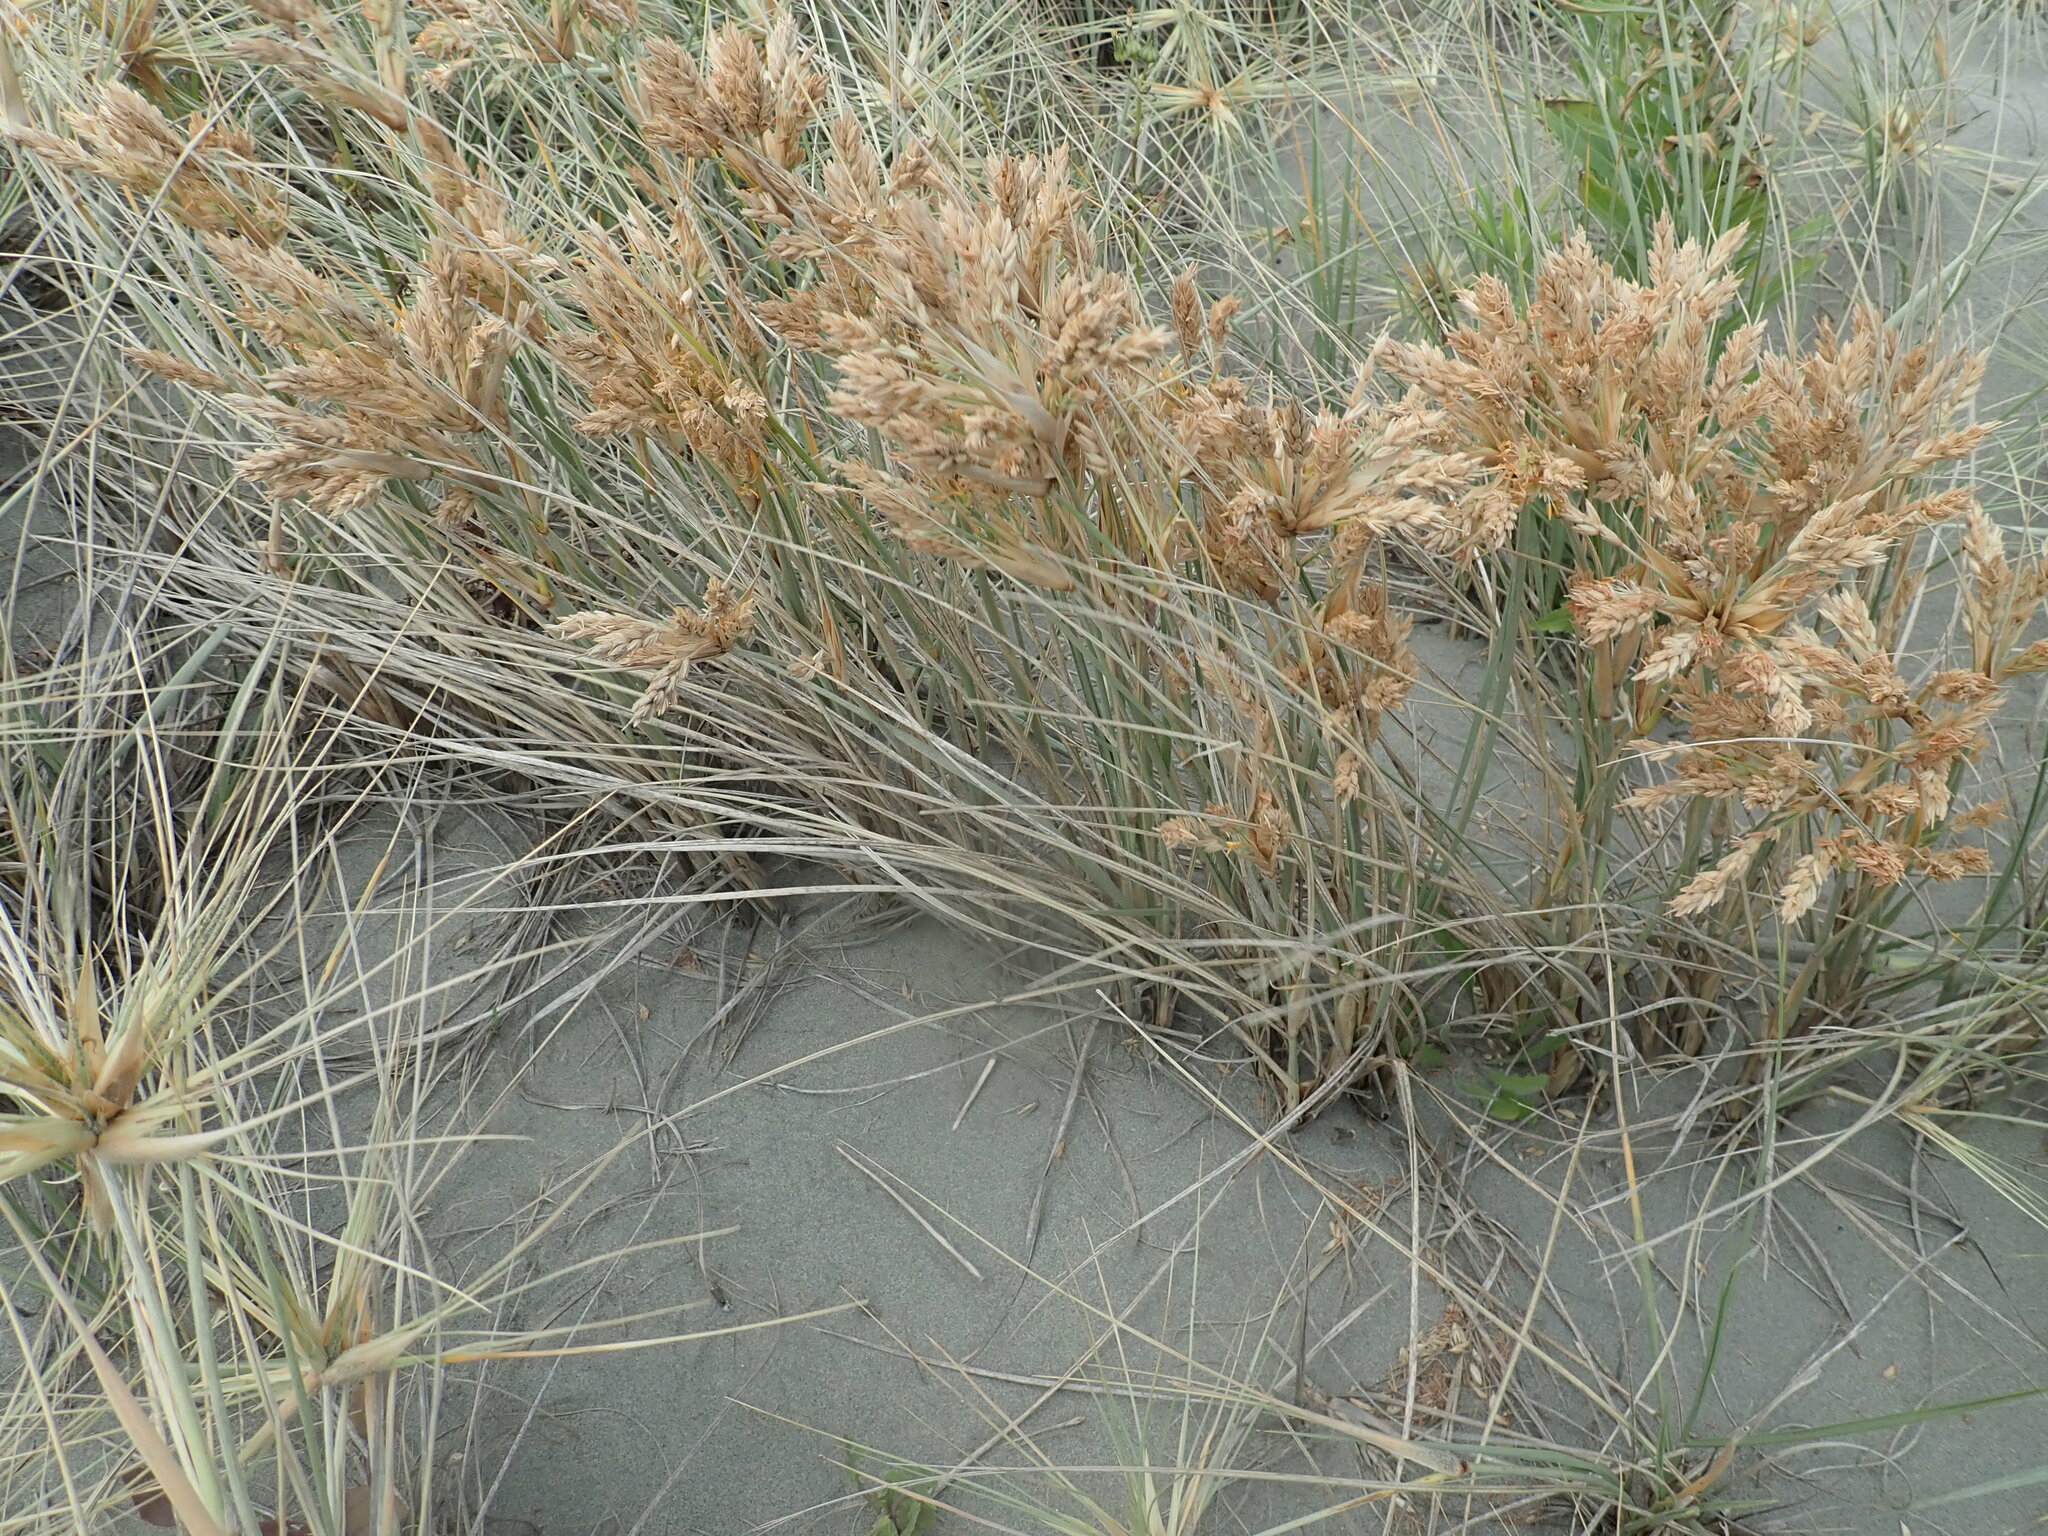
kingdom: Plantae
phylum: Tracheophyta
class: Liliopsida
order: Poales
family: Poaceae
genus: Spinifex
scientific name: Spinifex sericeus
